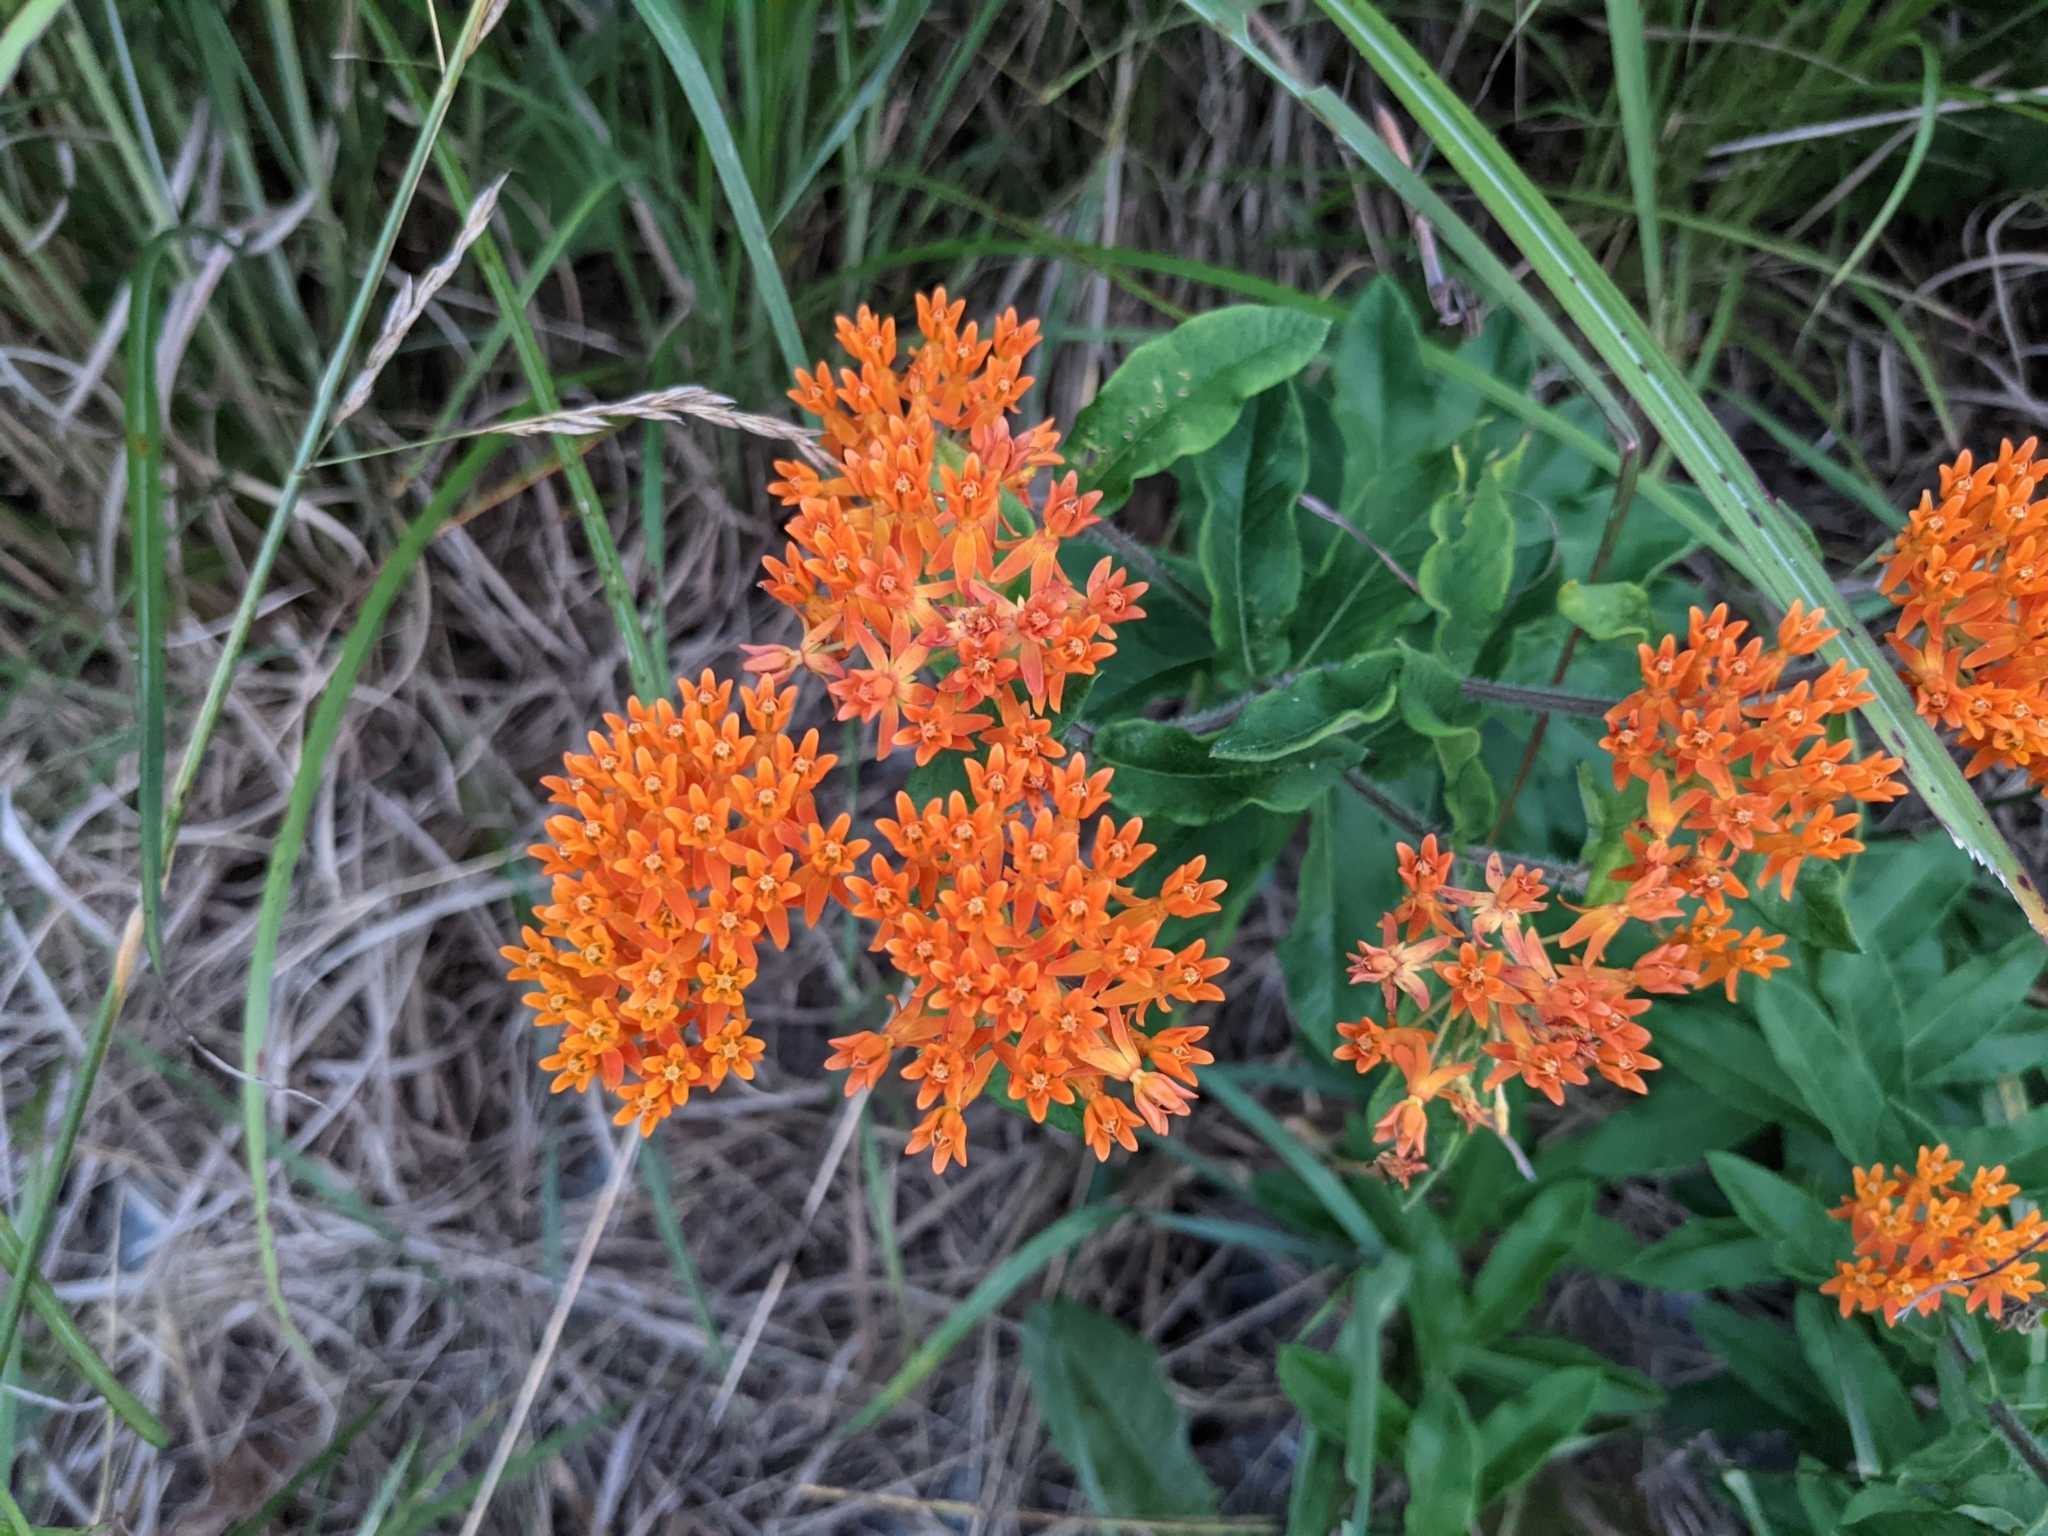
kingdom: Plantae
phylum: Tracheophyta
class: Magnoliopsida
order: Gentianales
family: Apocynaceae
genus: Asclepias
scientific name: Asclepias tuberosa
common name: Butterfly milkweed
